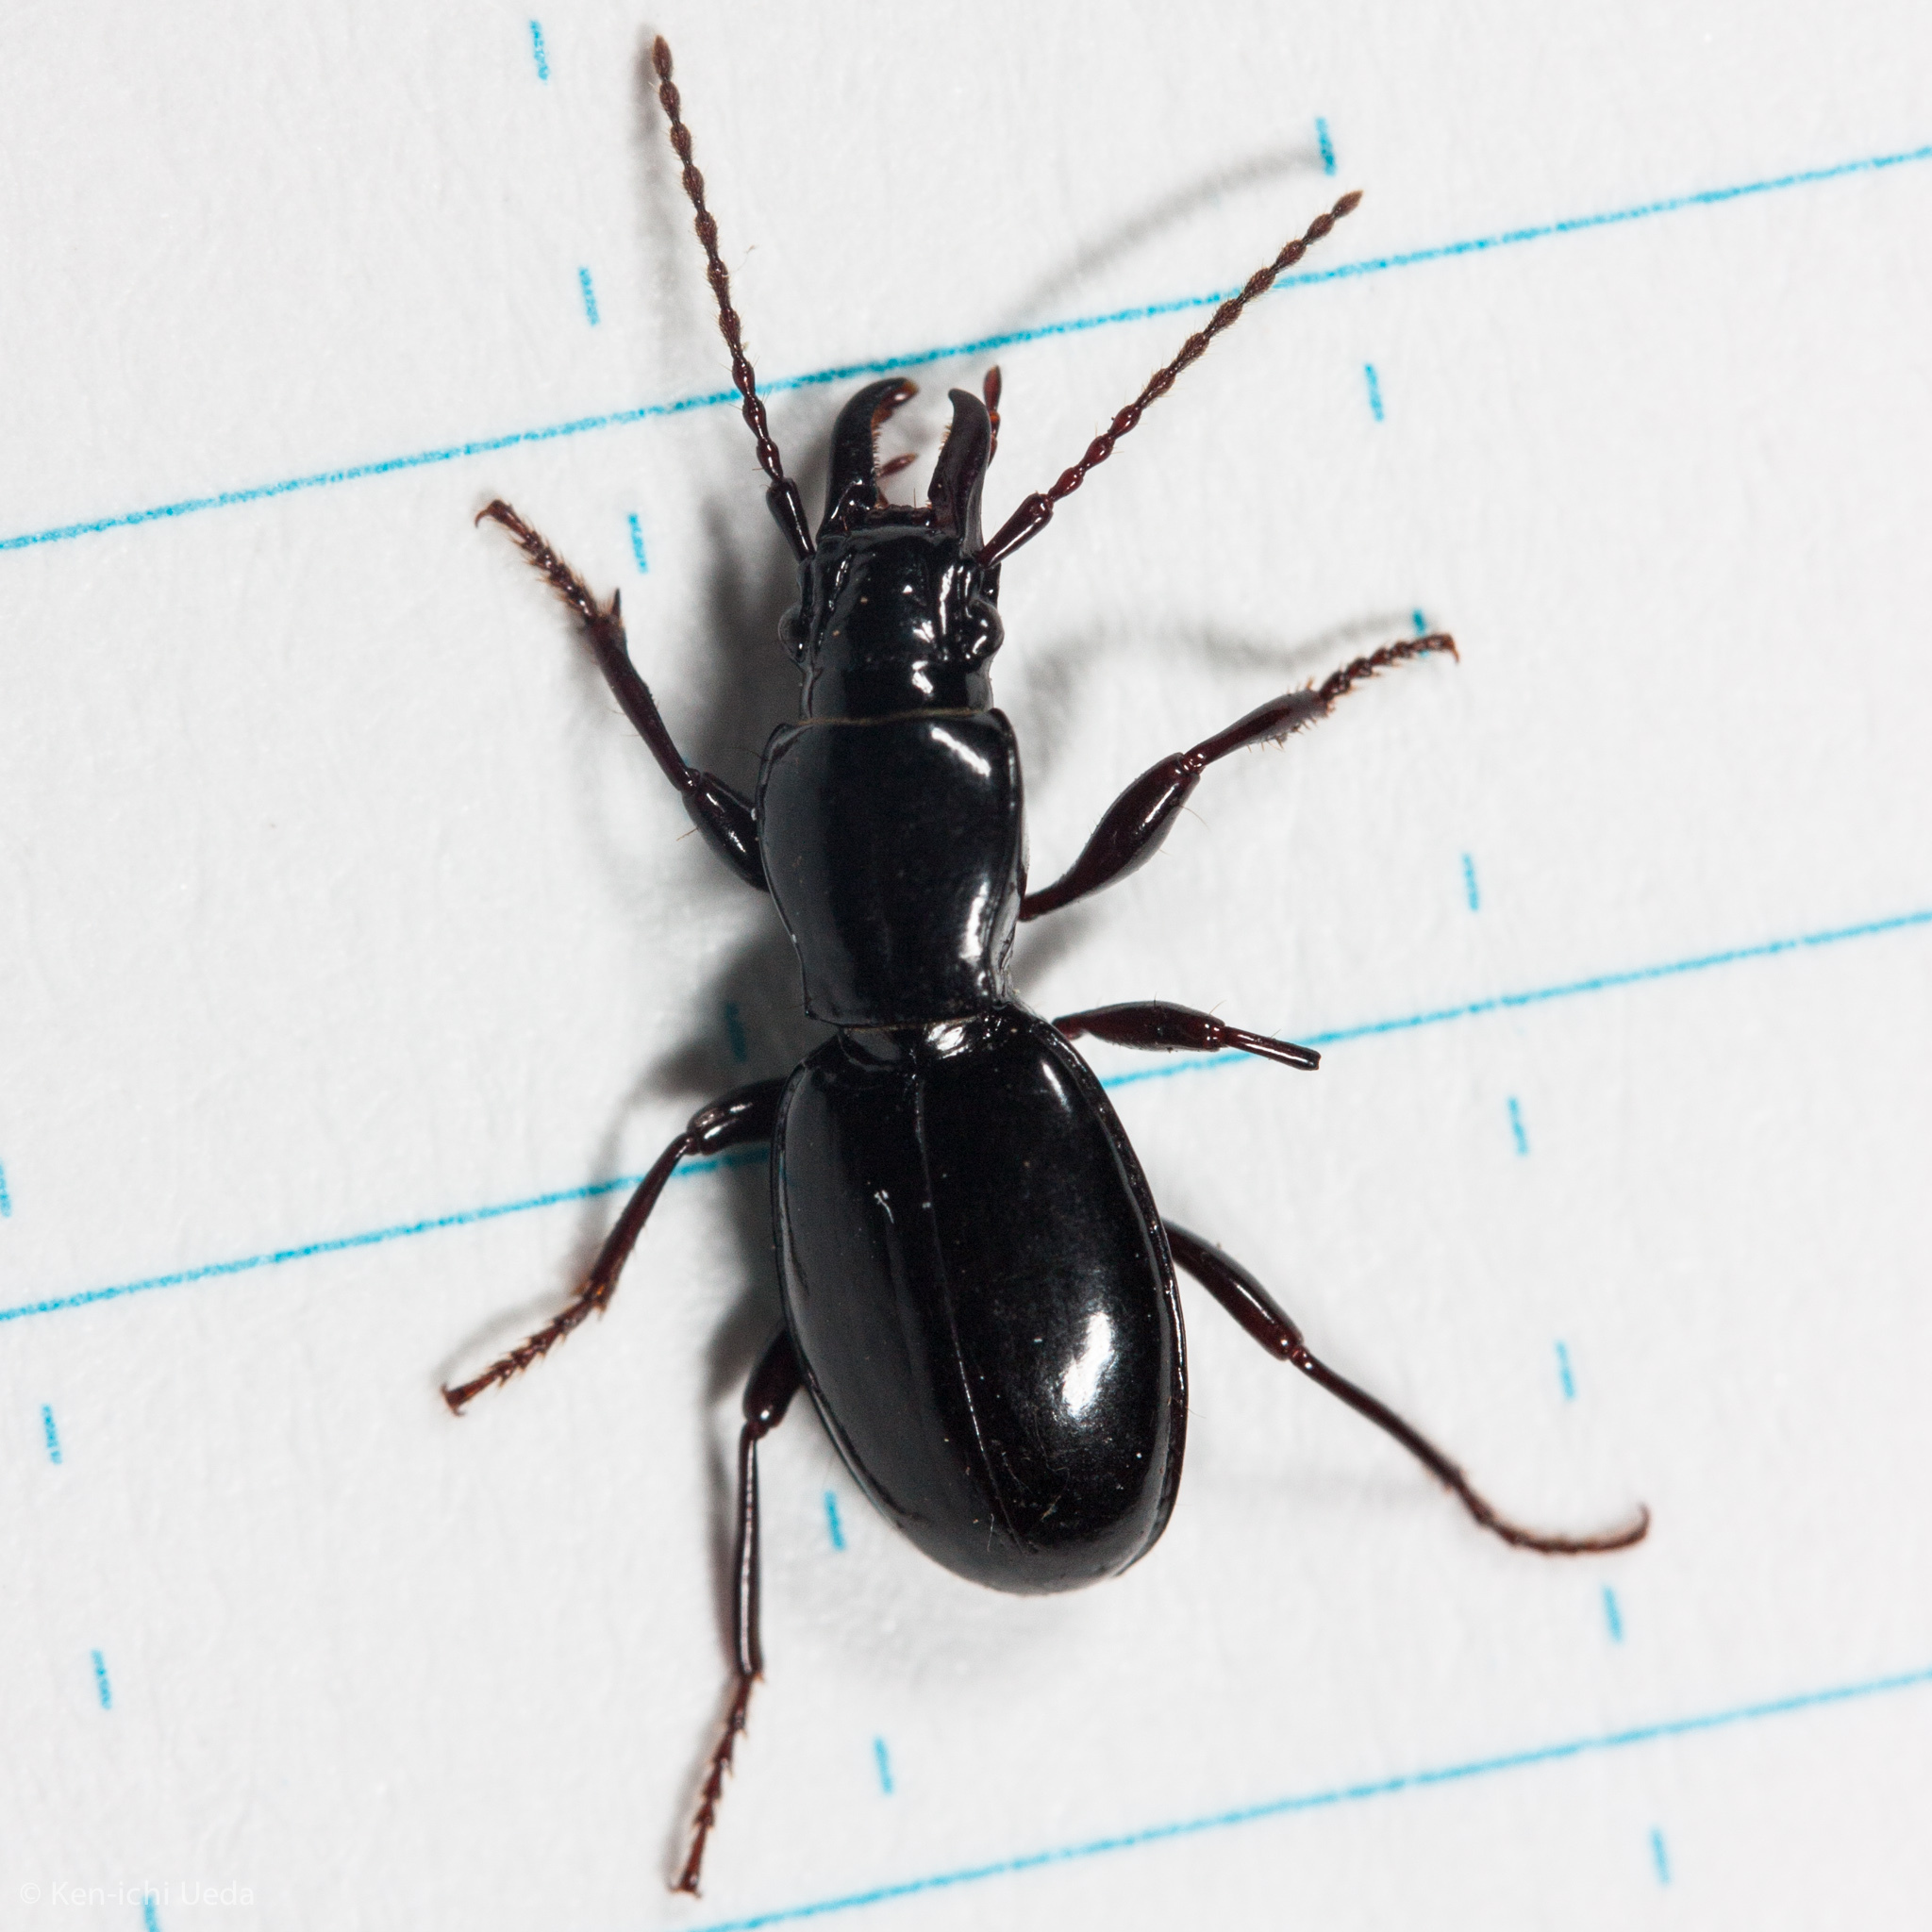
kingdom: Animalia
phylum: Arthropoda
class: Insecta
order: Coleoptera
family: Carabidae
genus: Promecognathus
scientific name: Promecognathus laevissimus
